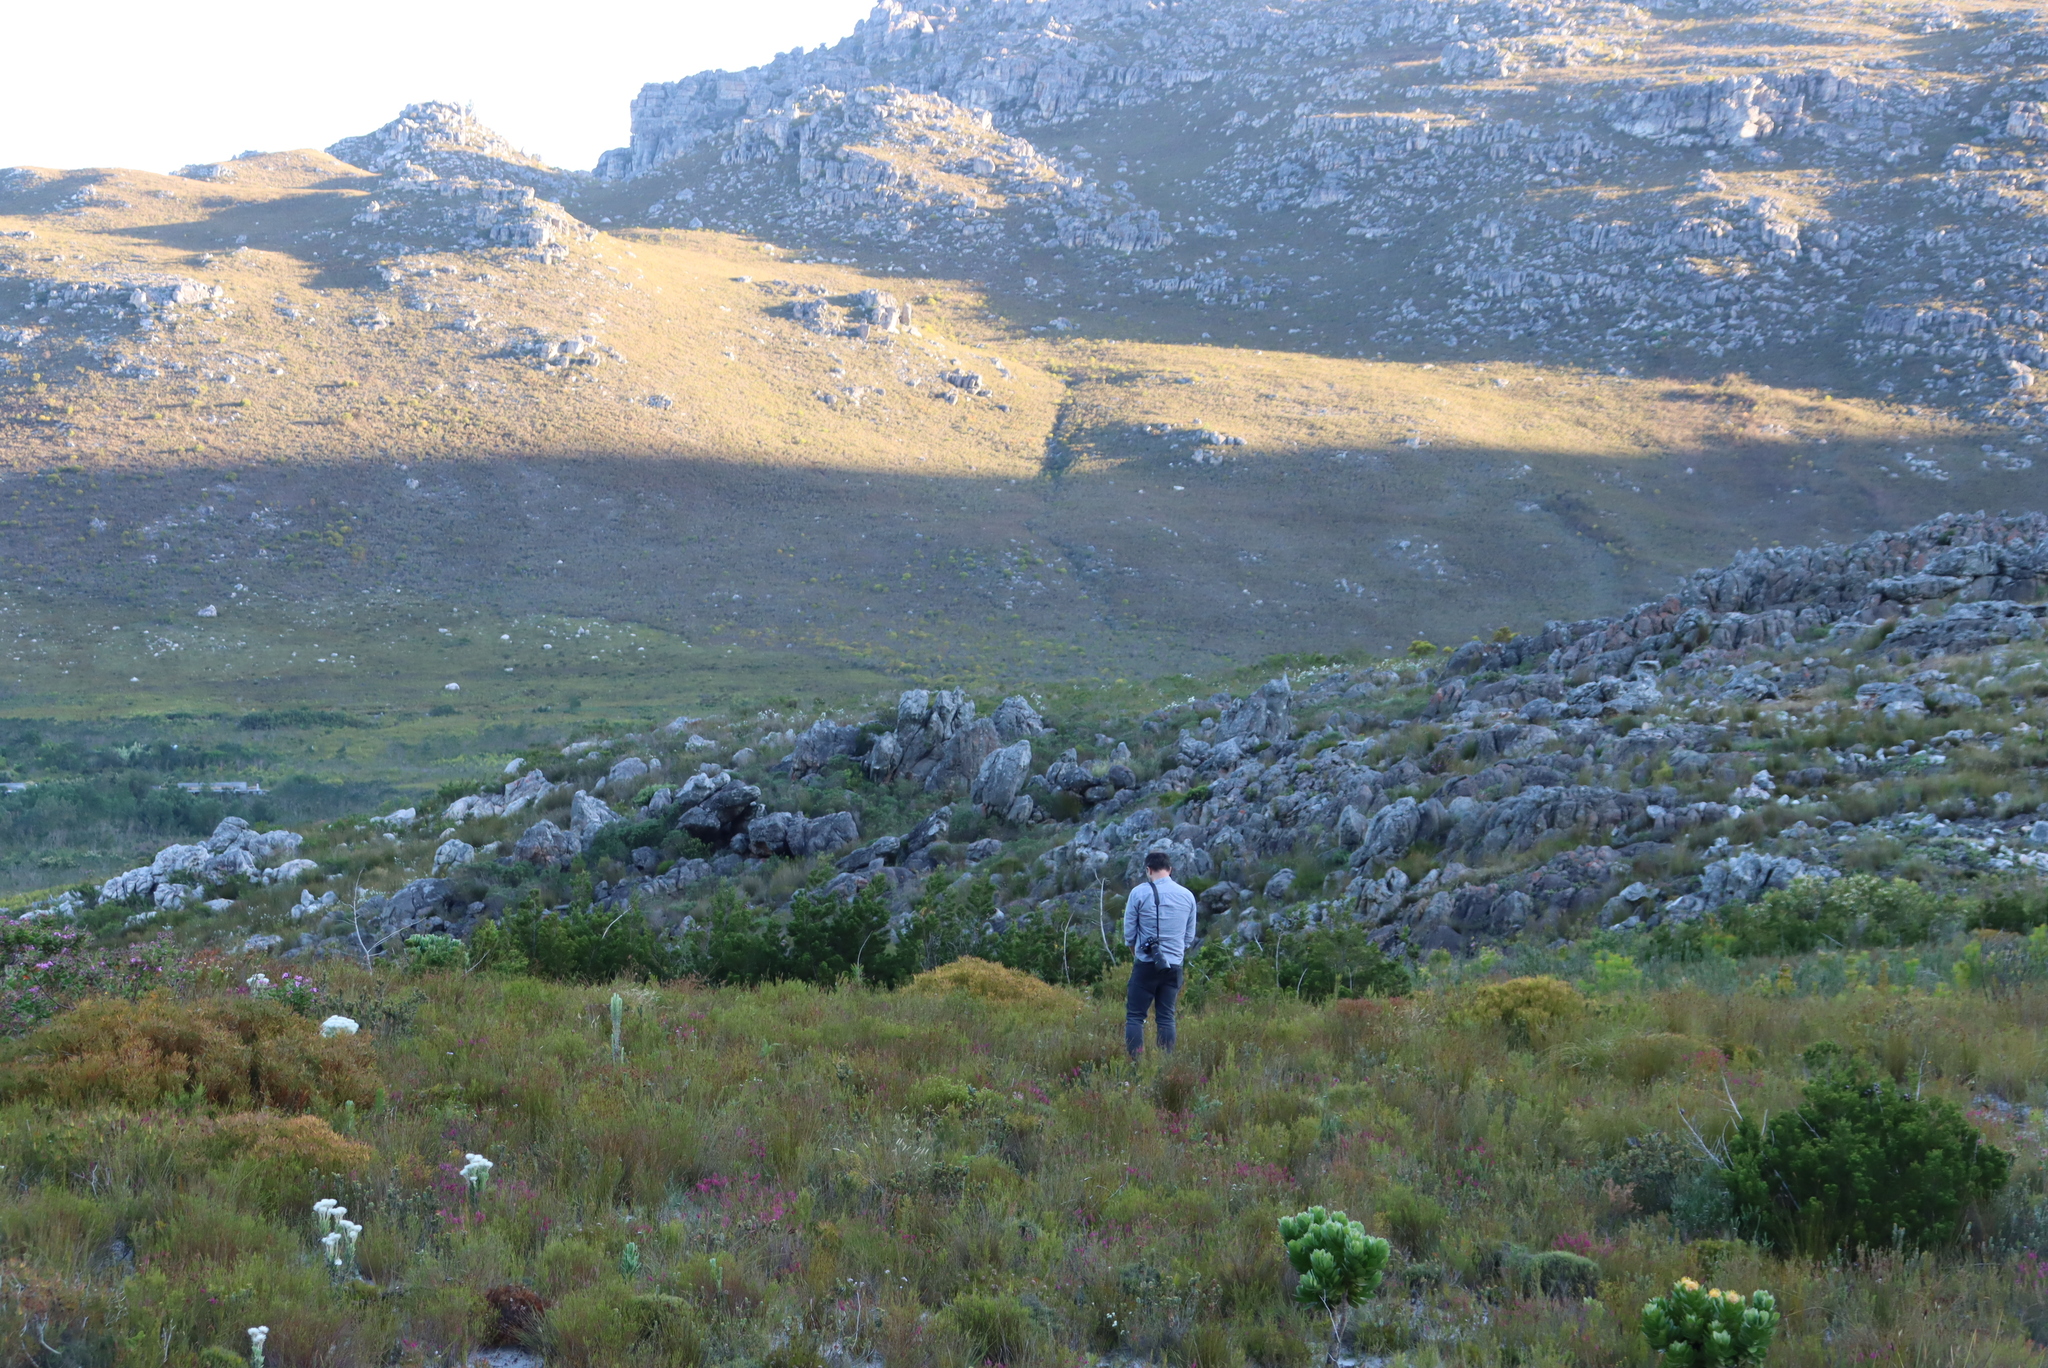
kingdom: Plantae
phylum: Tracheophyta
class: Magnoliopsida
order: Proteales
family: Proteaceae
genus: Leucospermum
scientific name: Leucospermum conocarpodendron
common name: Tree pincushion
